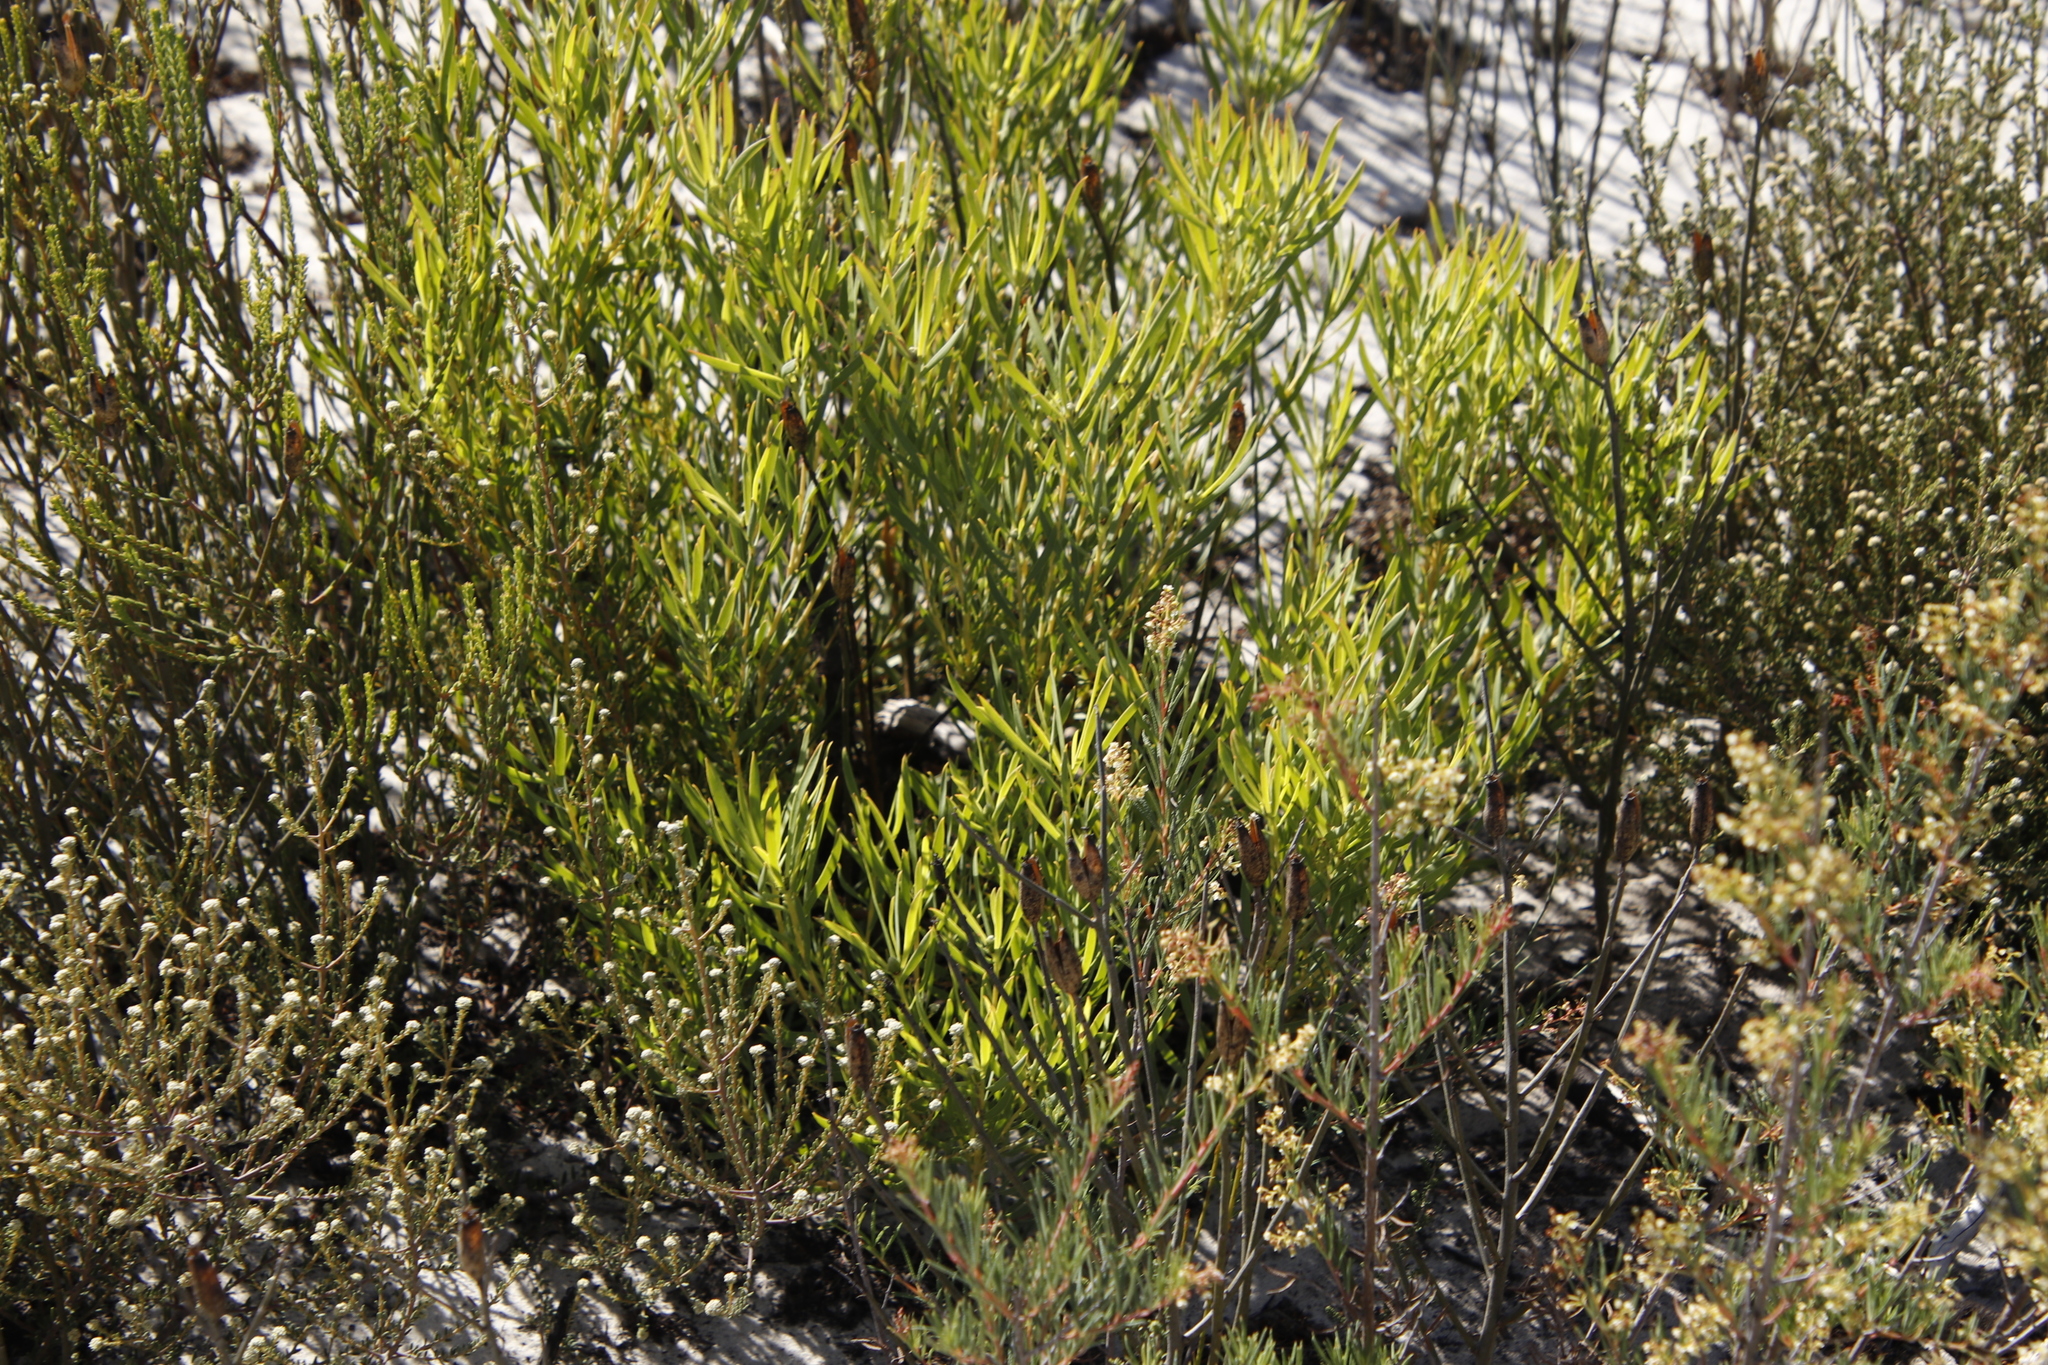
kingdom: Plantae
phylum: Tracheophyta
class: Magnoliopsida
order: Proteales
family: Proteaceae
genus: Leucadendron
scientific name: Leucadendron salignum
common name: Common sunshine conebush
